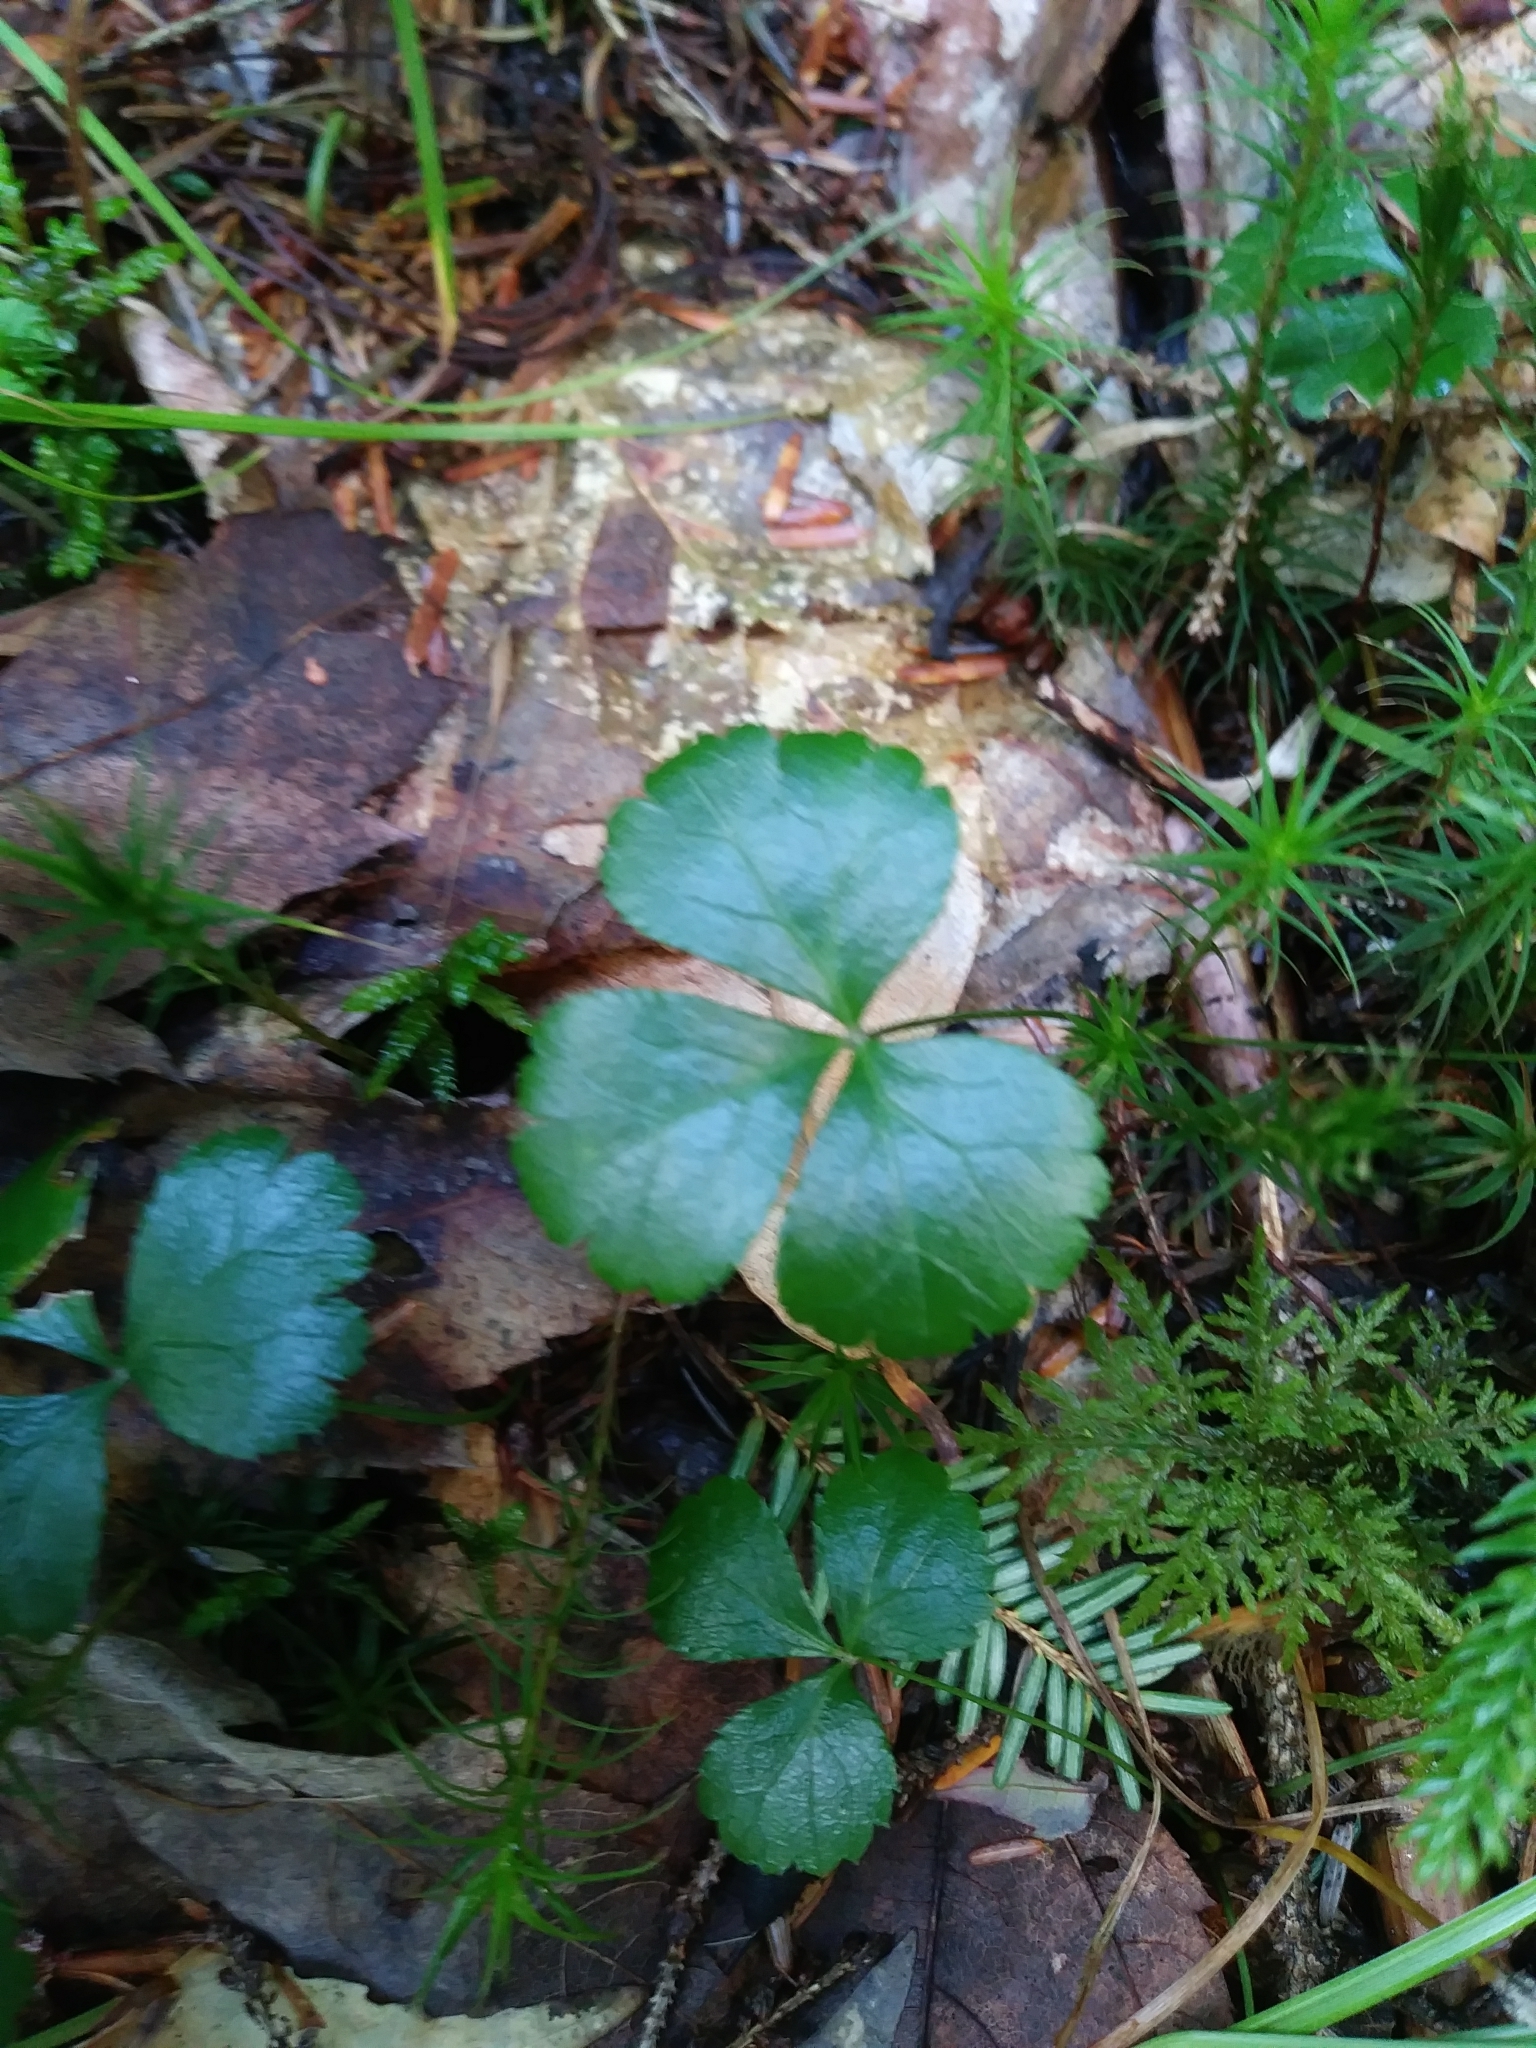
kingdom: Plantae
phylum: Tracheophyta
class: Magnoliopsida
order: Ranunculales
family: Ranunculaceae
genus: Coptis
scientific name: Coptis trifolia
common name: Canker-root
